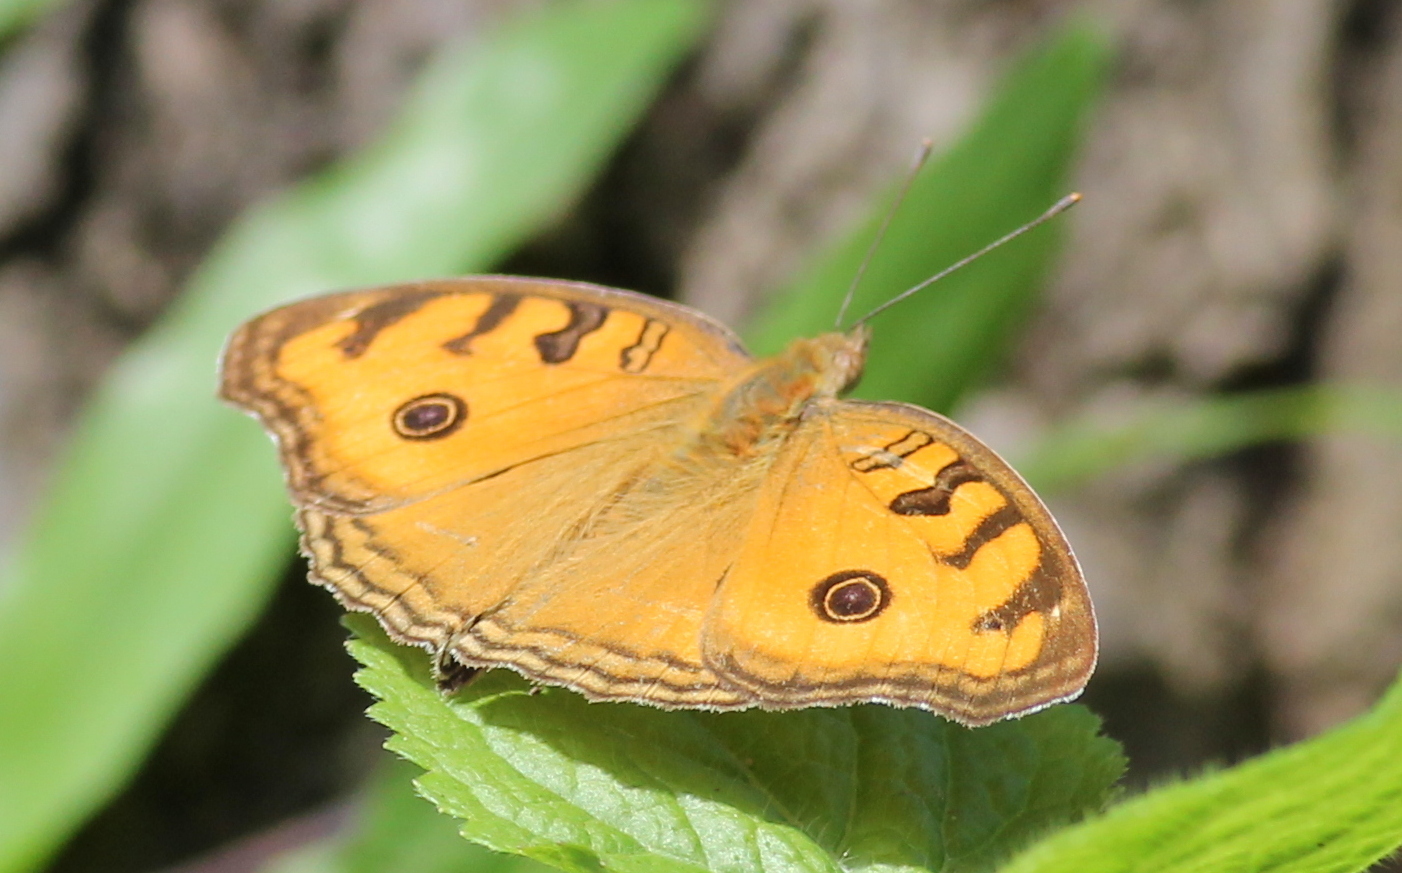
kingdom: Animalia
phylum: Arthropoda
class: Insecta
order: Lepidoptera
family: Nymphalidae
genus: Junonia
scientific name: Junonia almana
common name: Peacock pansy
